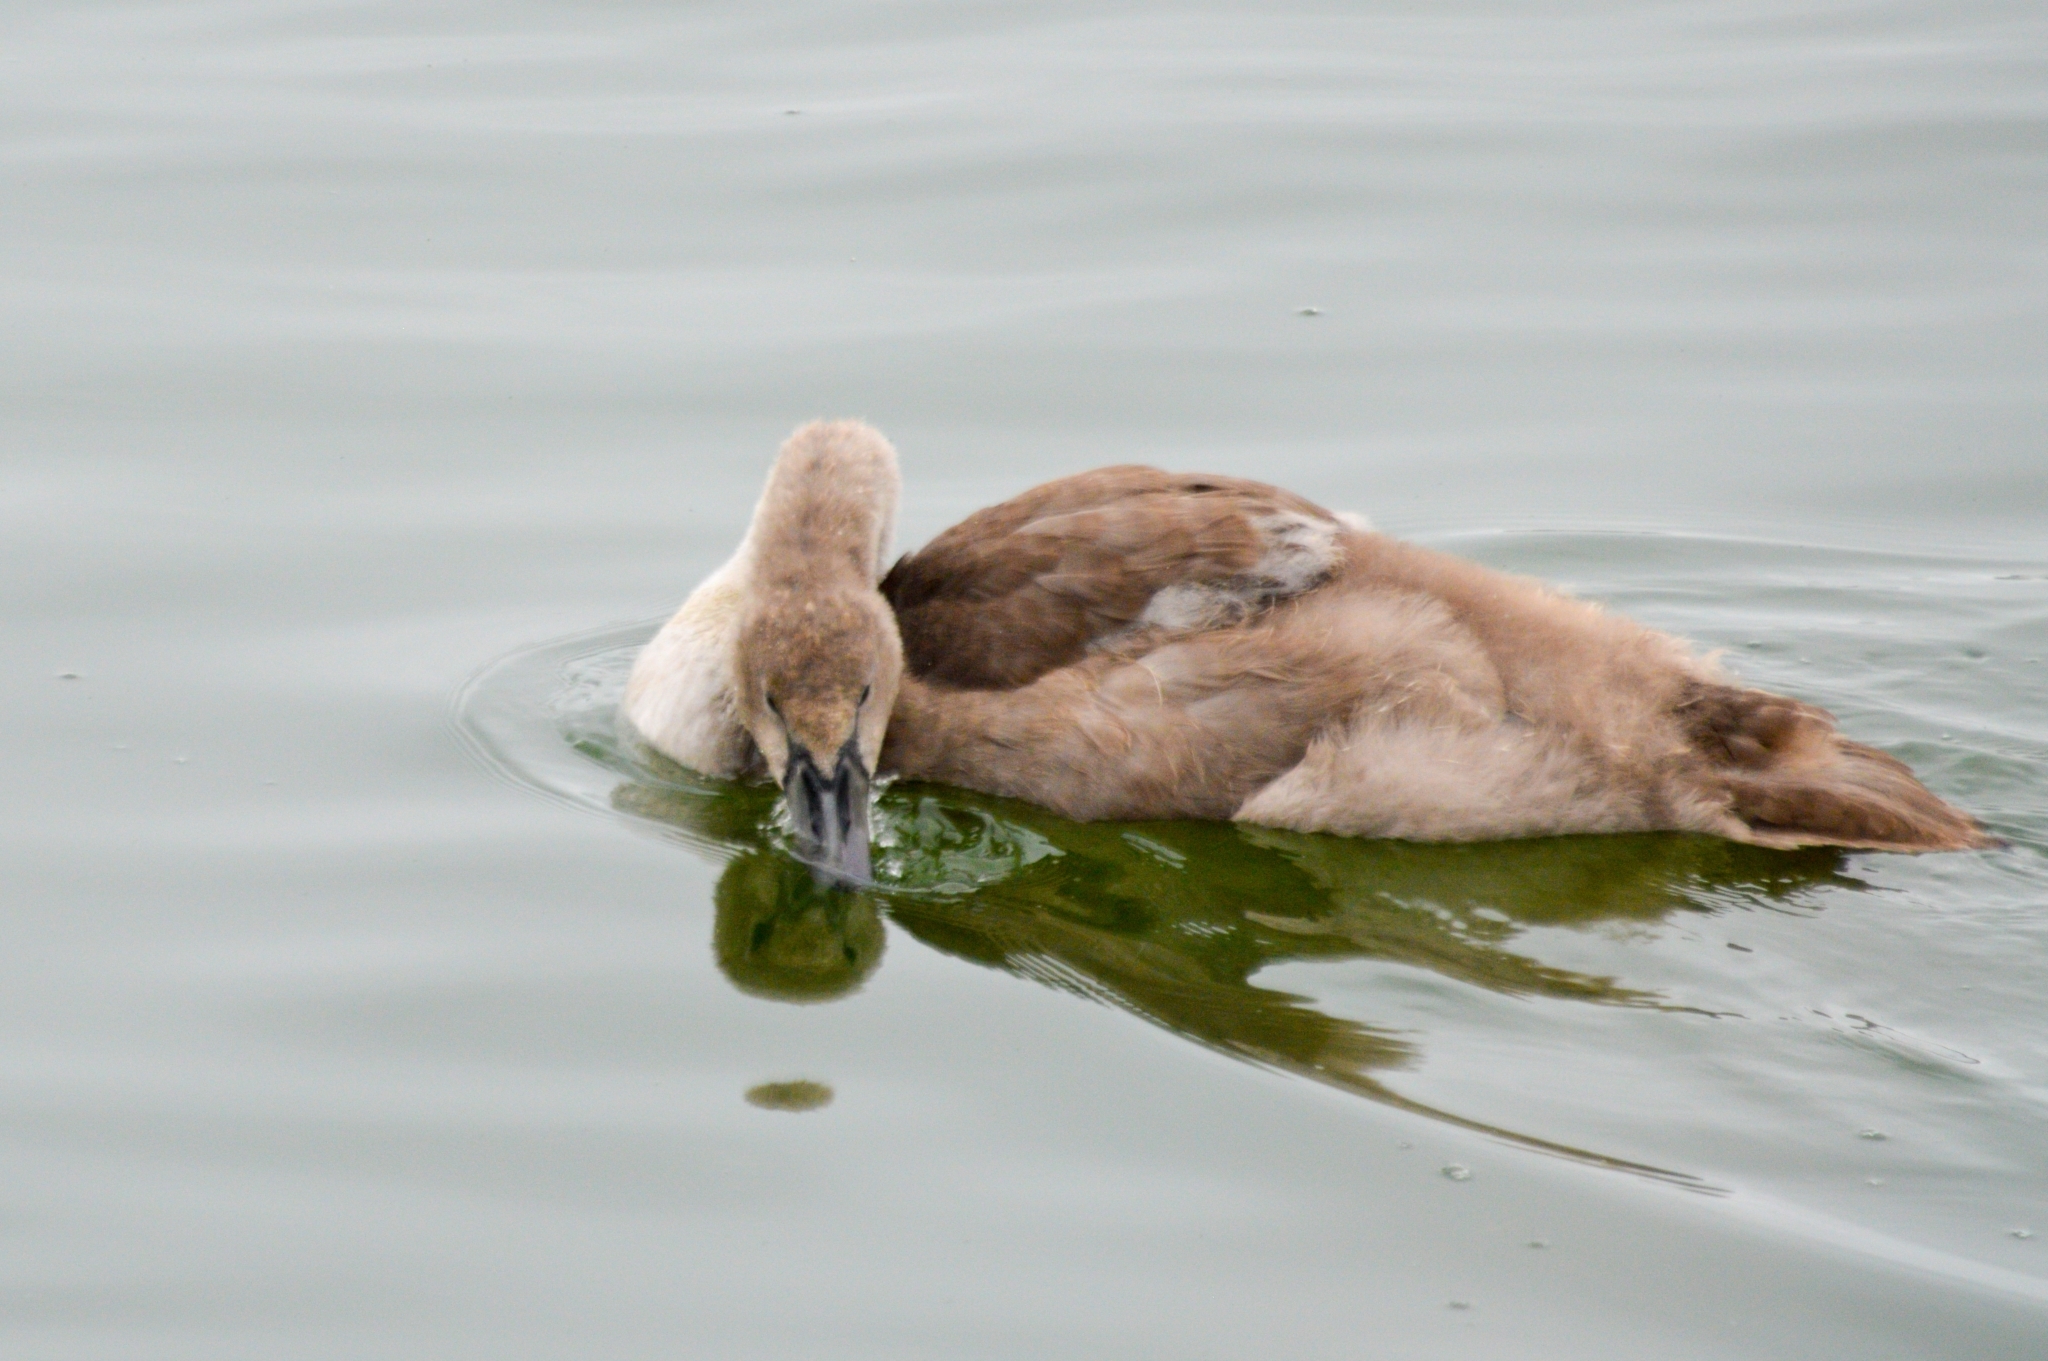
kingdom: Animalia
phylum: Chordata
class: Aves
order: Anseriformes
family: Anatidae
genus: Cygnus
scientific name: Cygnus olor
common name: Mute swan
